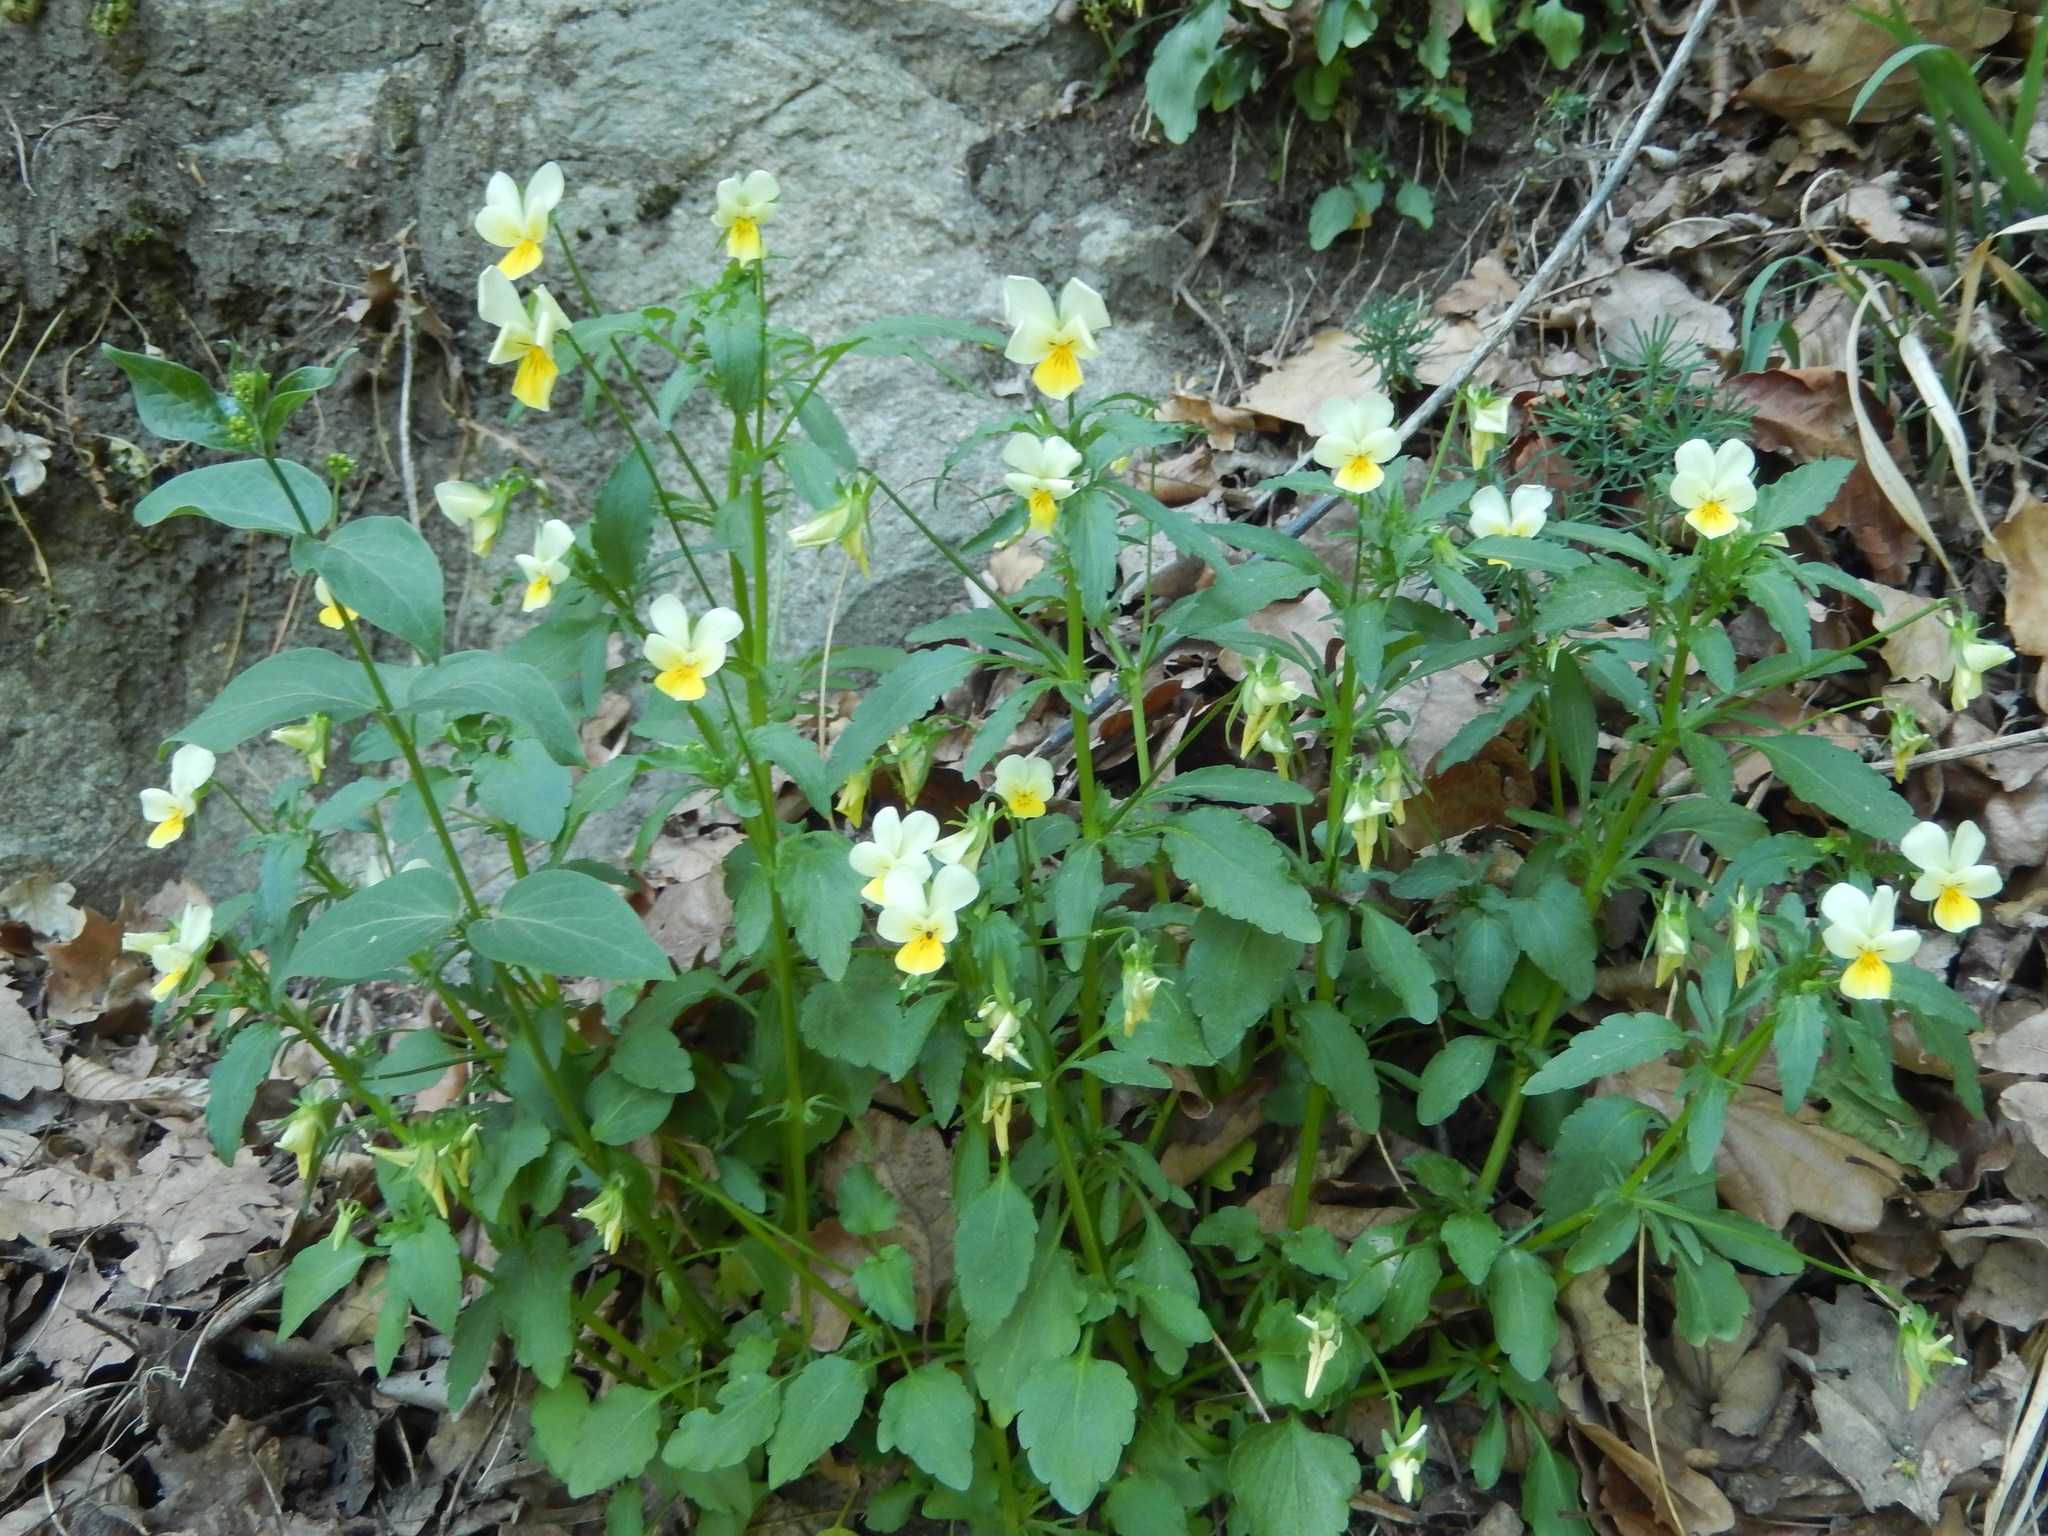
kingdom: Plantae
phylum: Tracheophyta
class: Magnoliopsida
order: Malpighiales
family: Violaceae
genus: Viola
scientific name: Viola arvensis
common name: Field pansy
